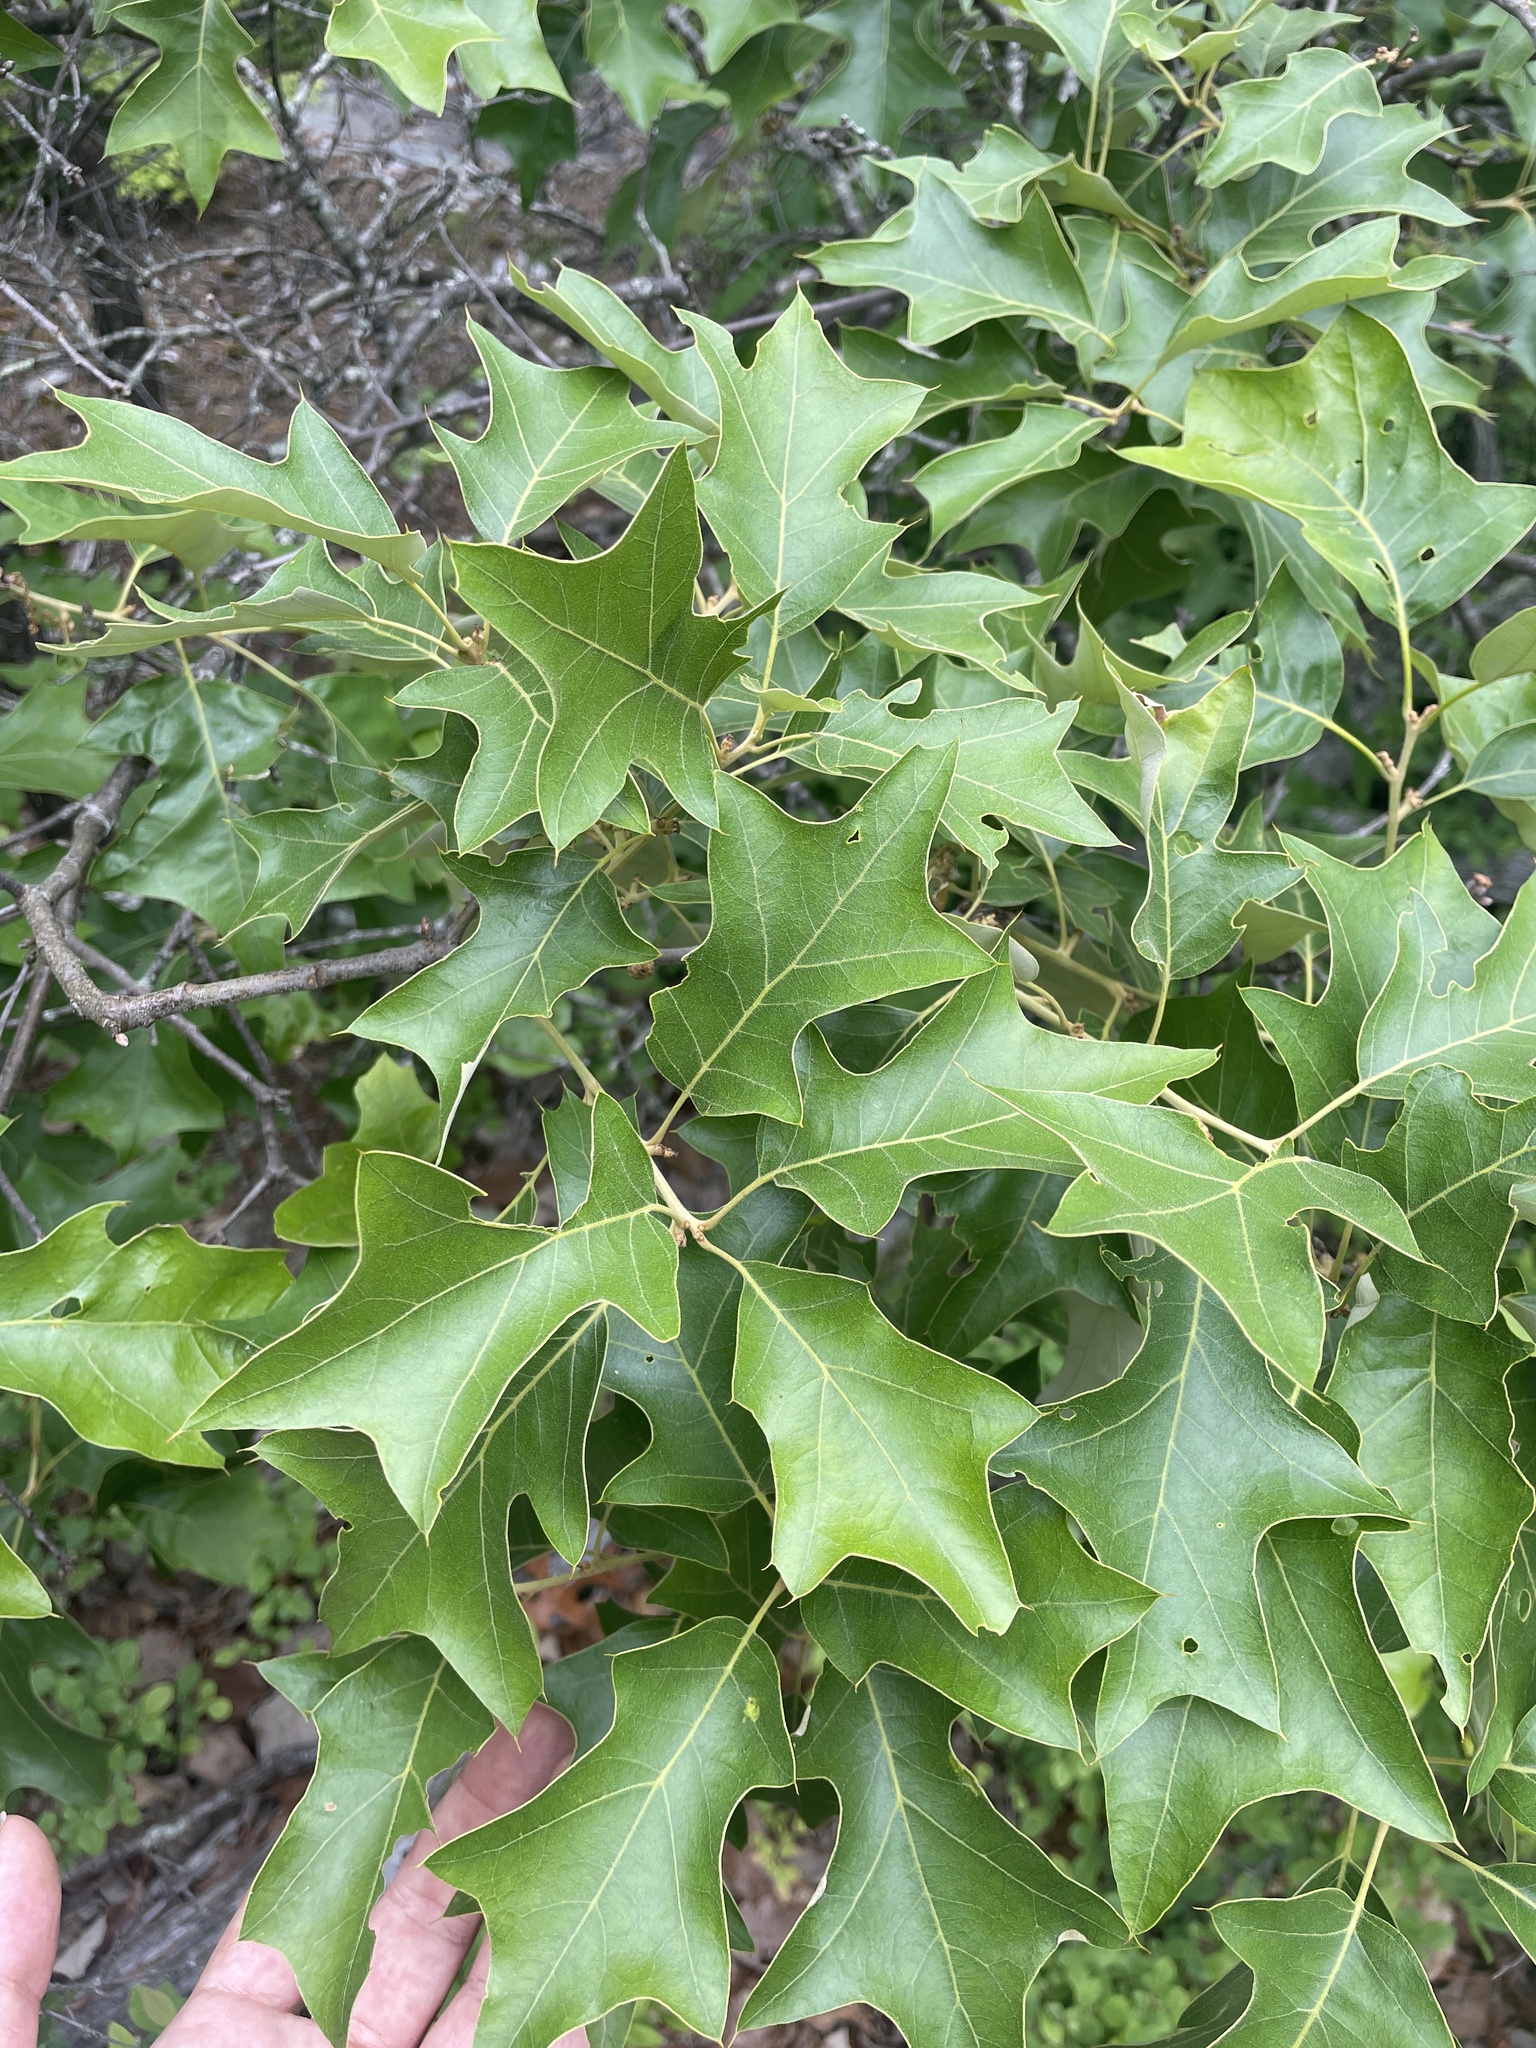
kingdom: Plantae
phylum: Tracheophyta
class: Magnoliopsida
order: Fagales
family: Fagaceae
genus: Quercus
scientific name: Quercus ilicifolia
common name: Bear oak
